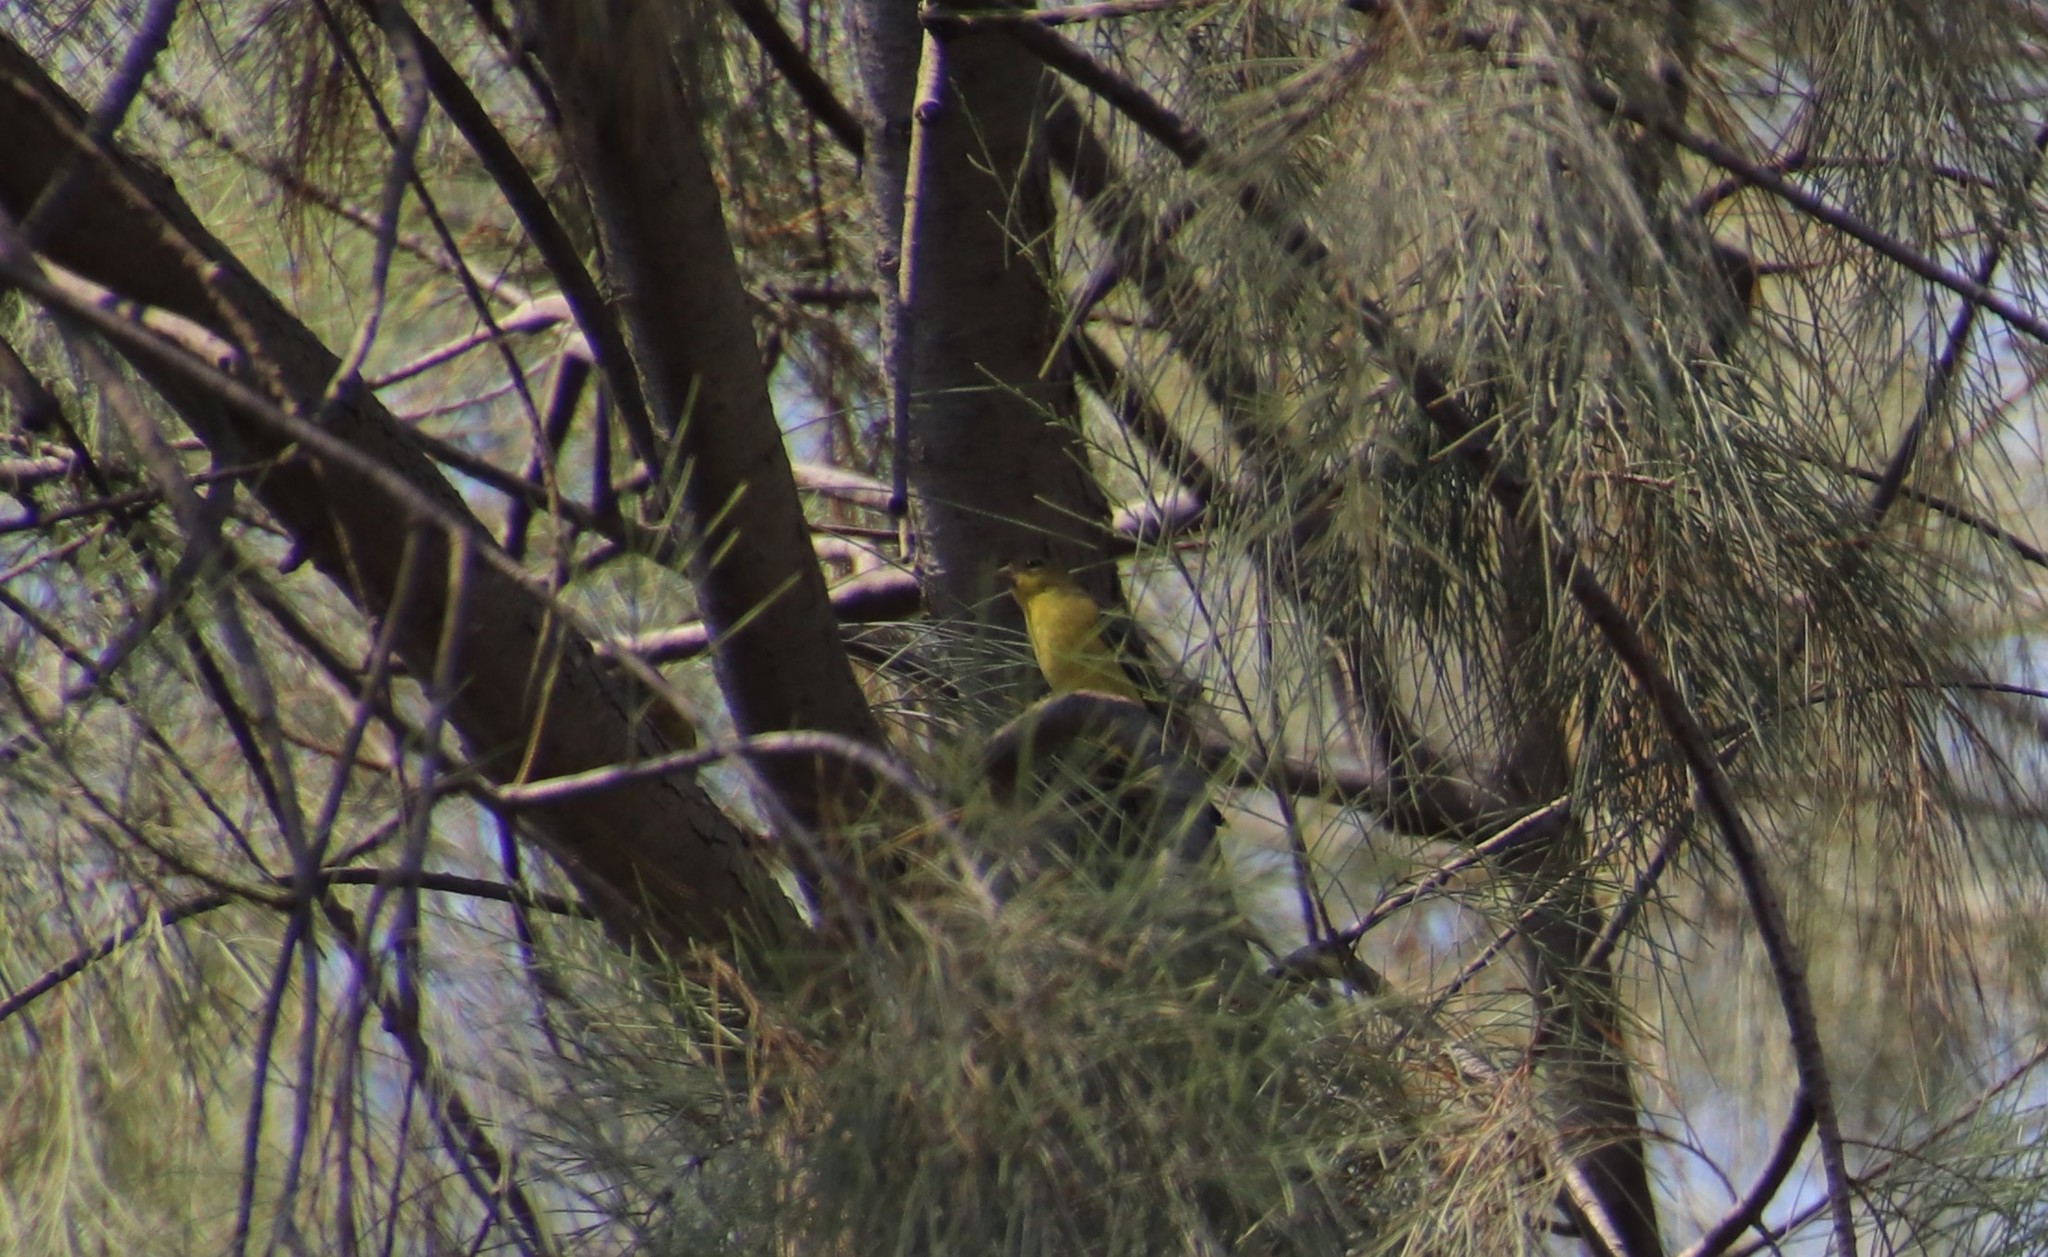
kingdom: Animalia
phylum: Chordata
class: Aves
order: Passeriformes
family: Fringillidae
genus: Spinus
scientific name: Spinus psaltria
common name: Lesser goldfinch
